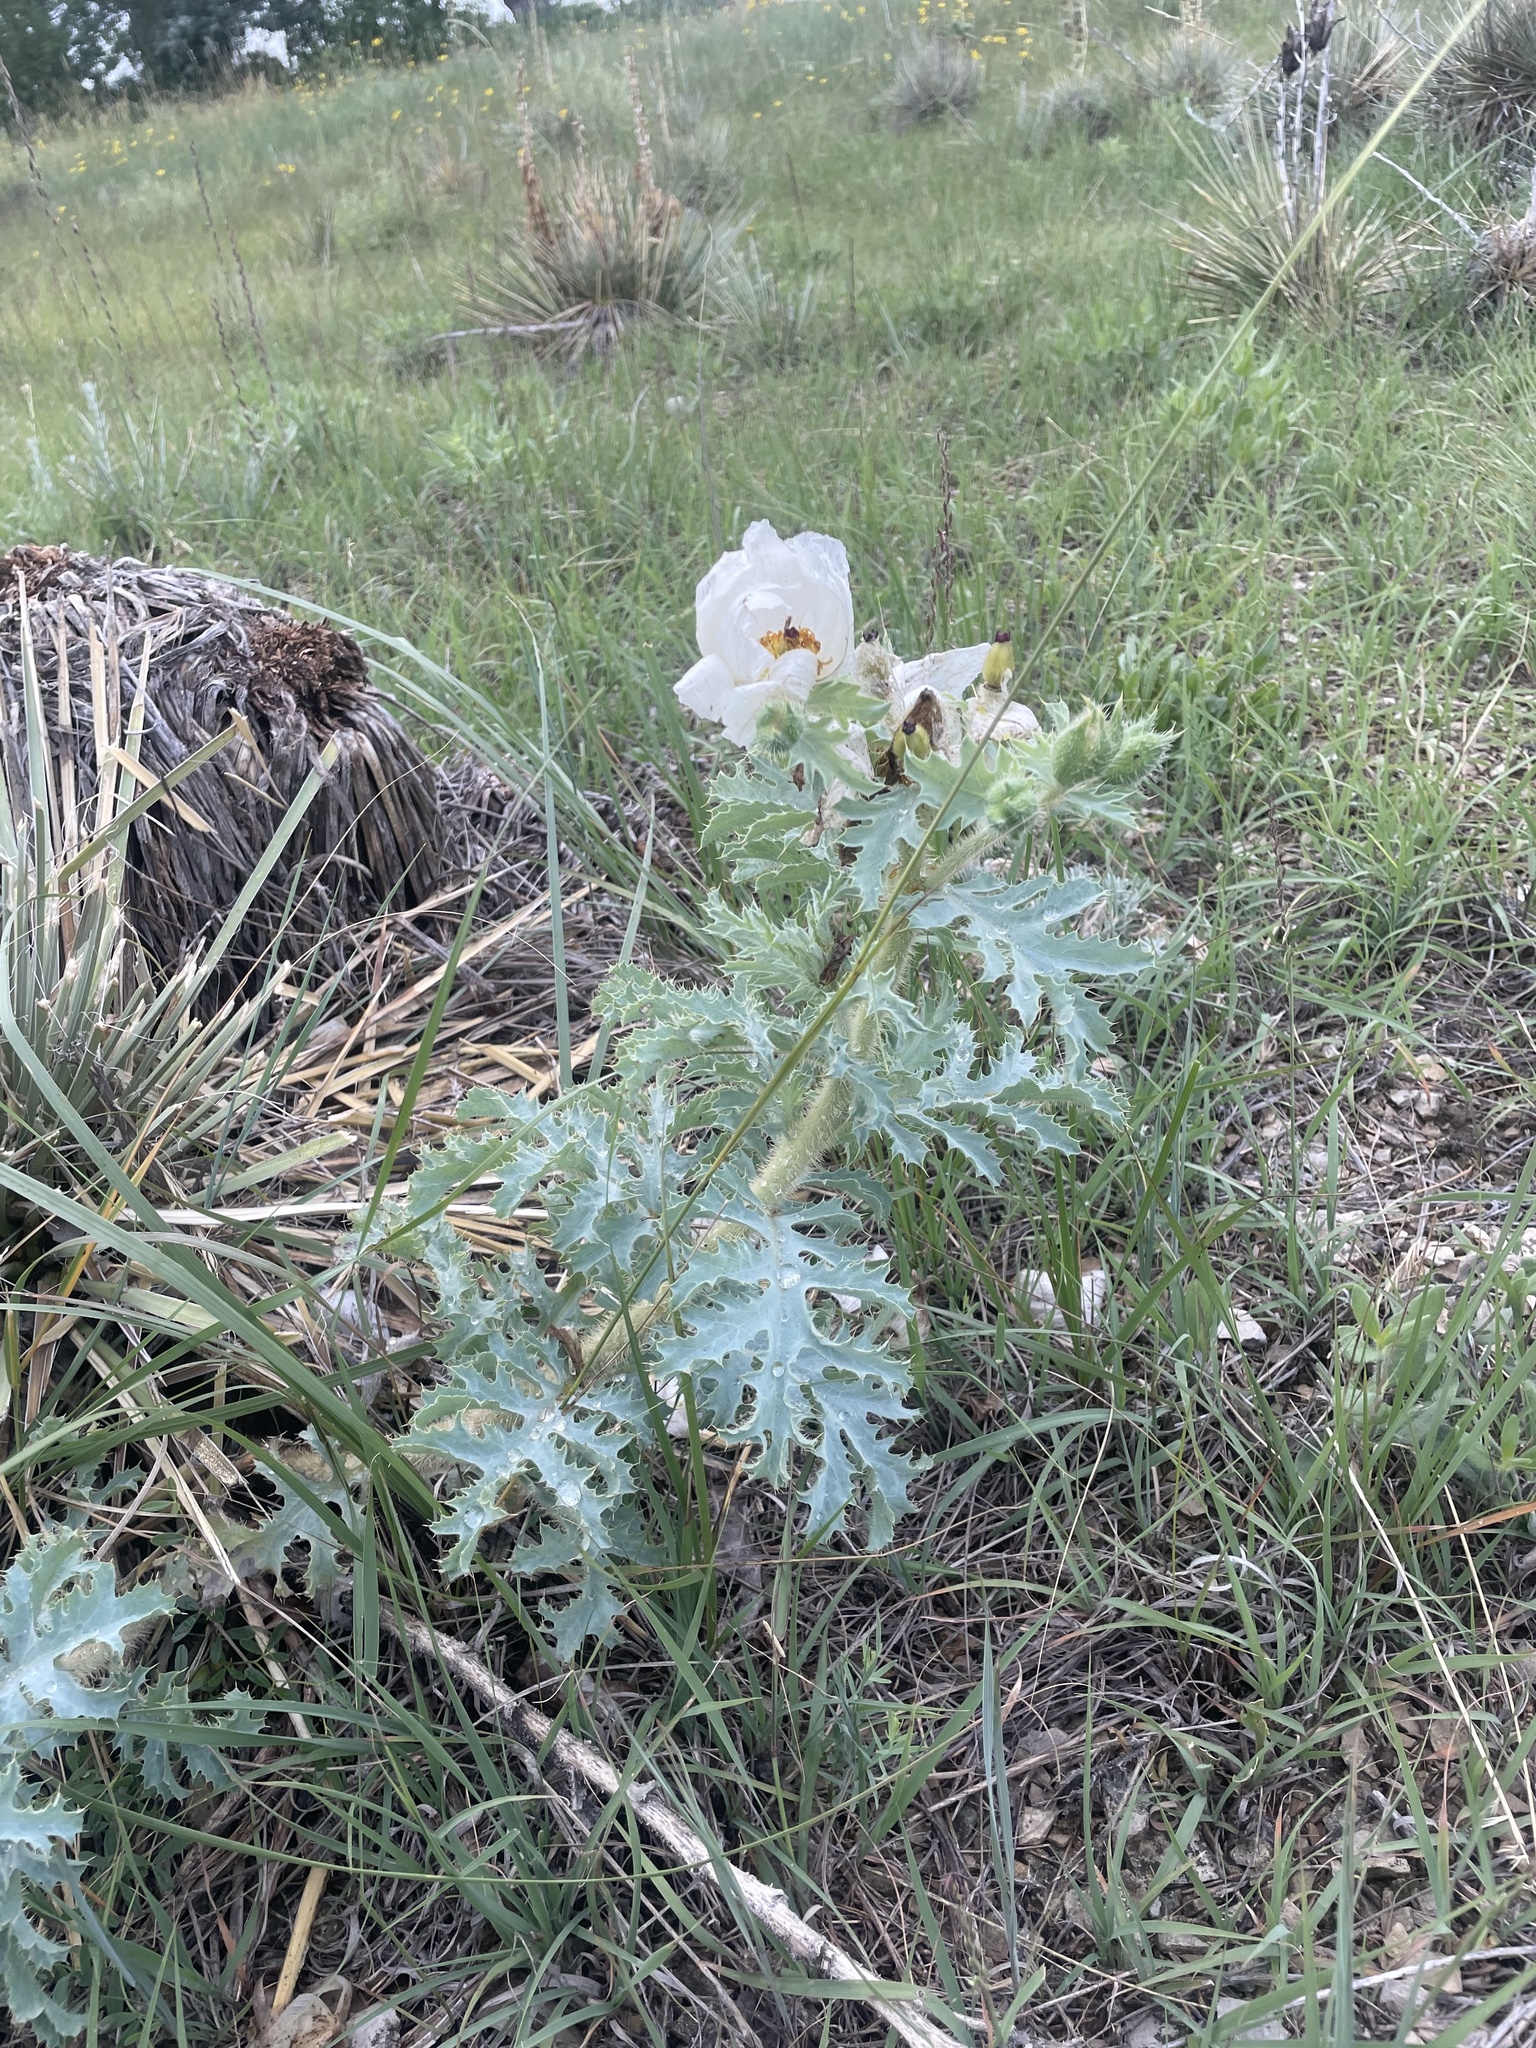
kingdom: Plantae
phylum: Tracheophyta
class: Magnoliopsida
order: Ranunculales
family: Papaveraceae
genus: Argemone
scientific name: Argemone polyanthemos
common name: Plains prickly-poppy
